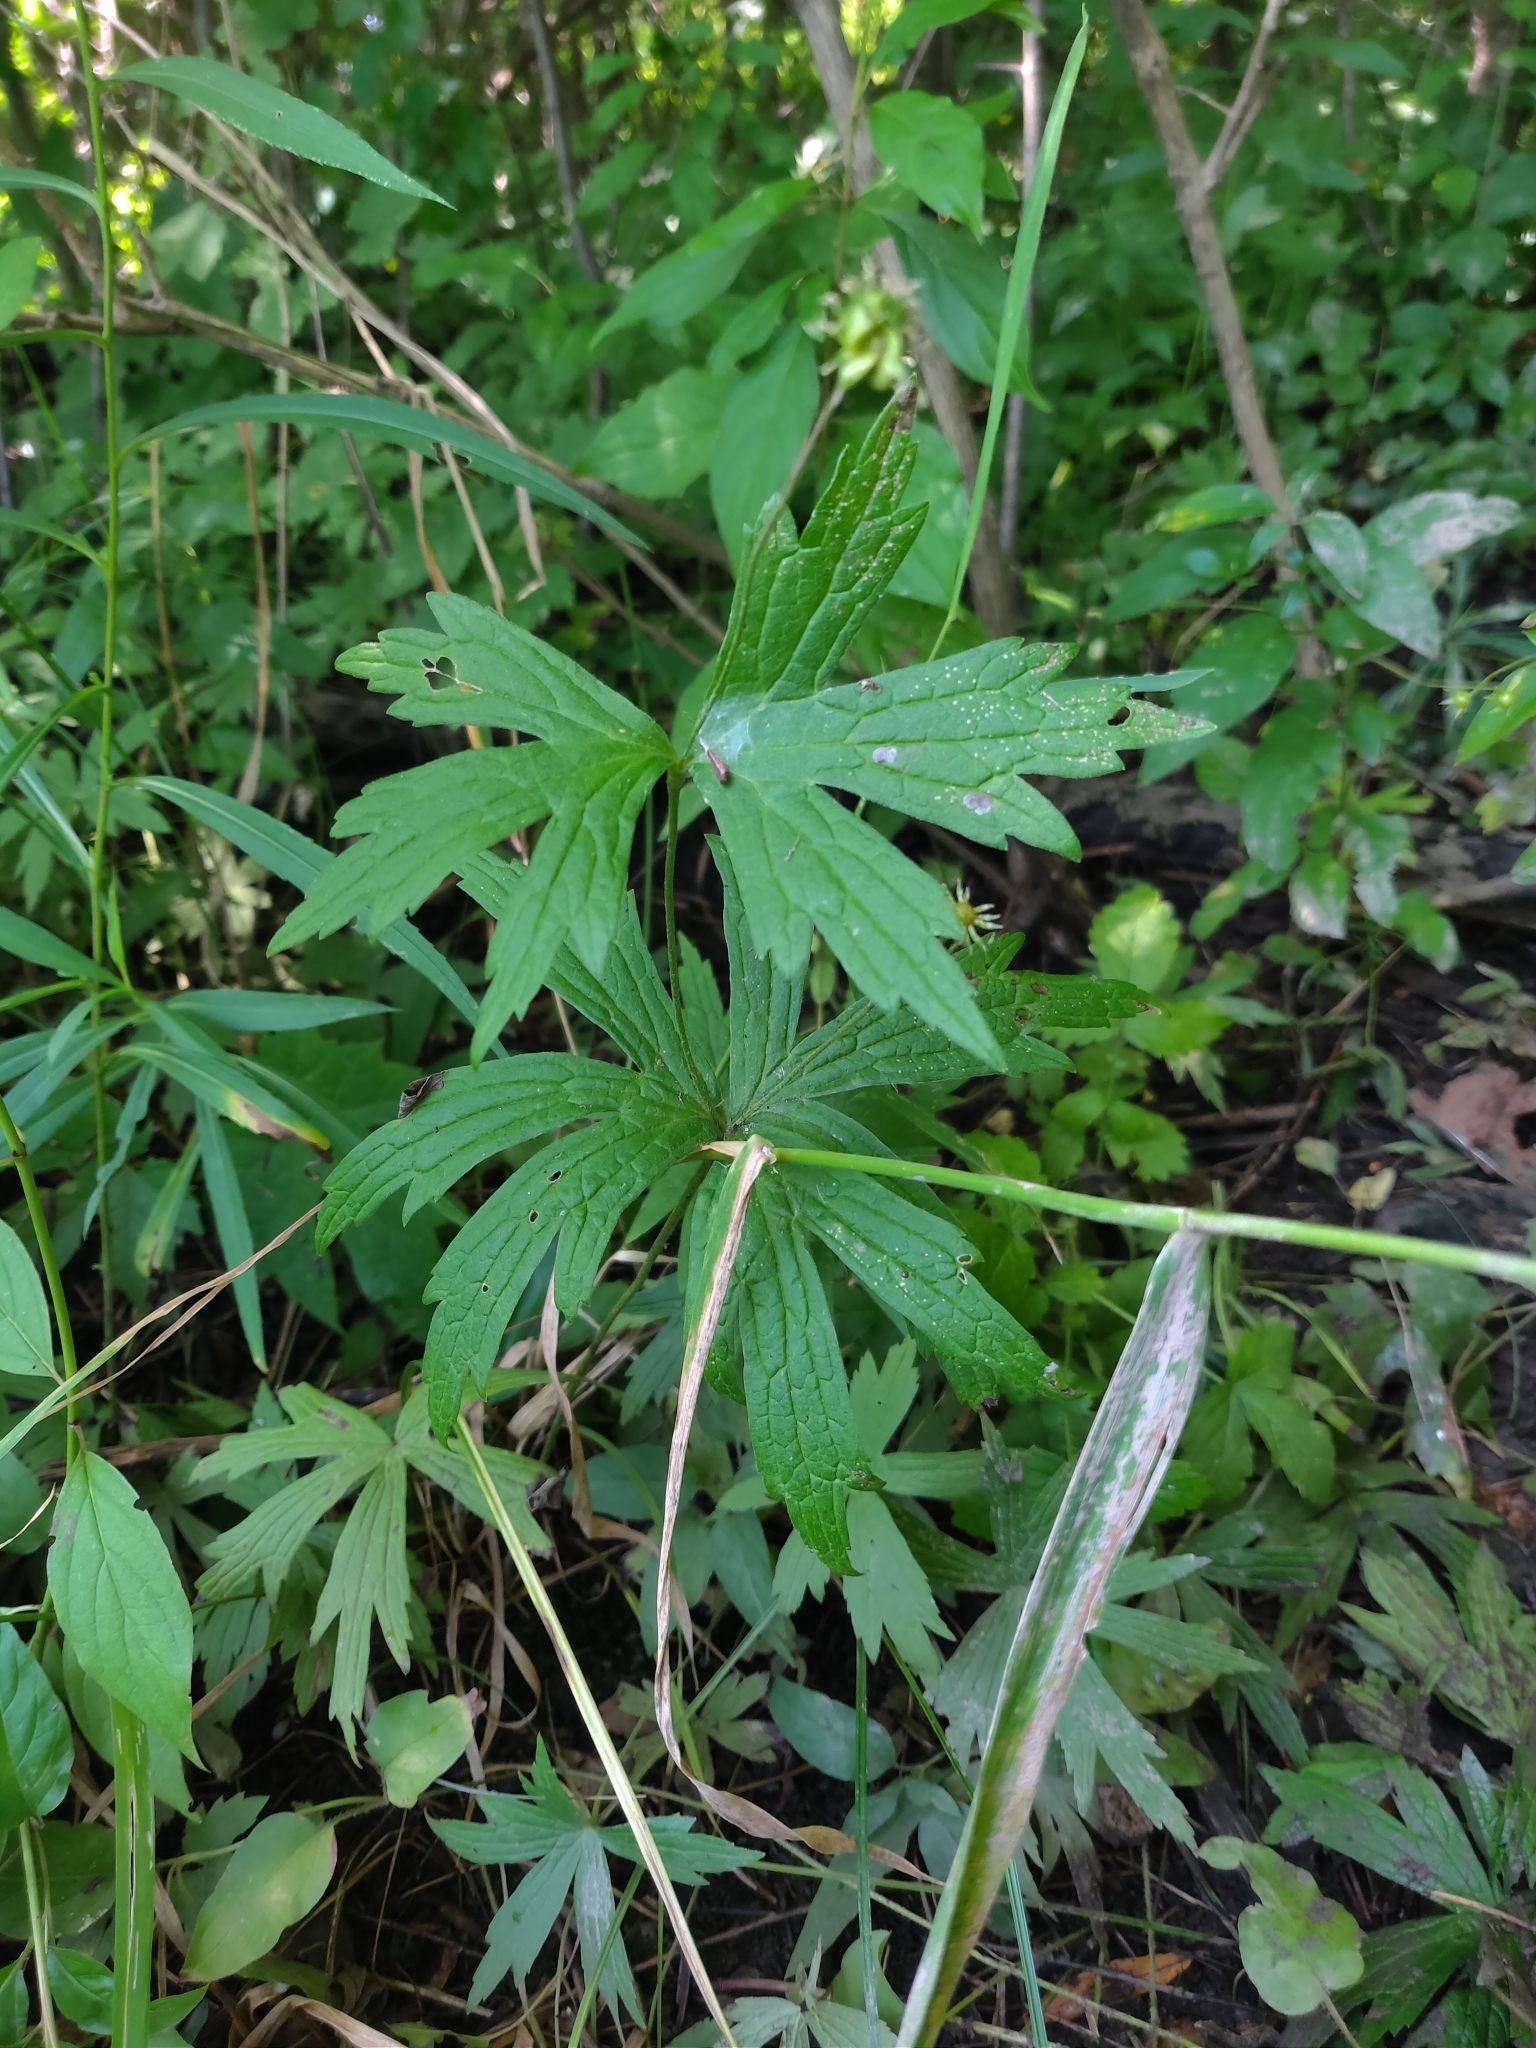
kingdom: Plantae
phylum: Tracheophyta
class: Magnoliopsida
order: Ranunculales
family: Ranunculaceae
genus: Anemonastrum
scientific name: Anemonastrum canadense
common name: Canada anemone
